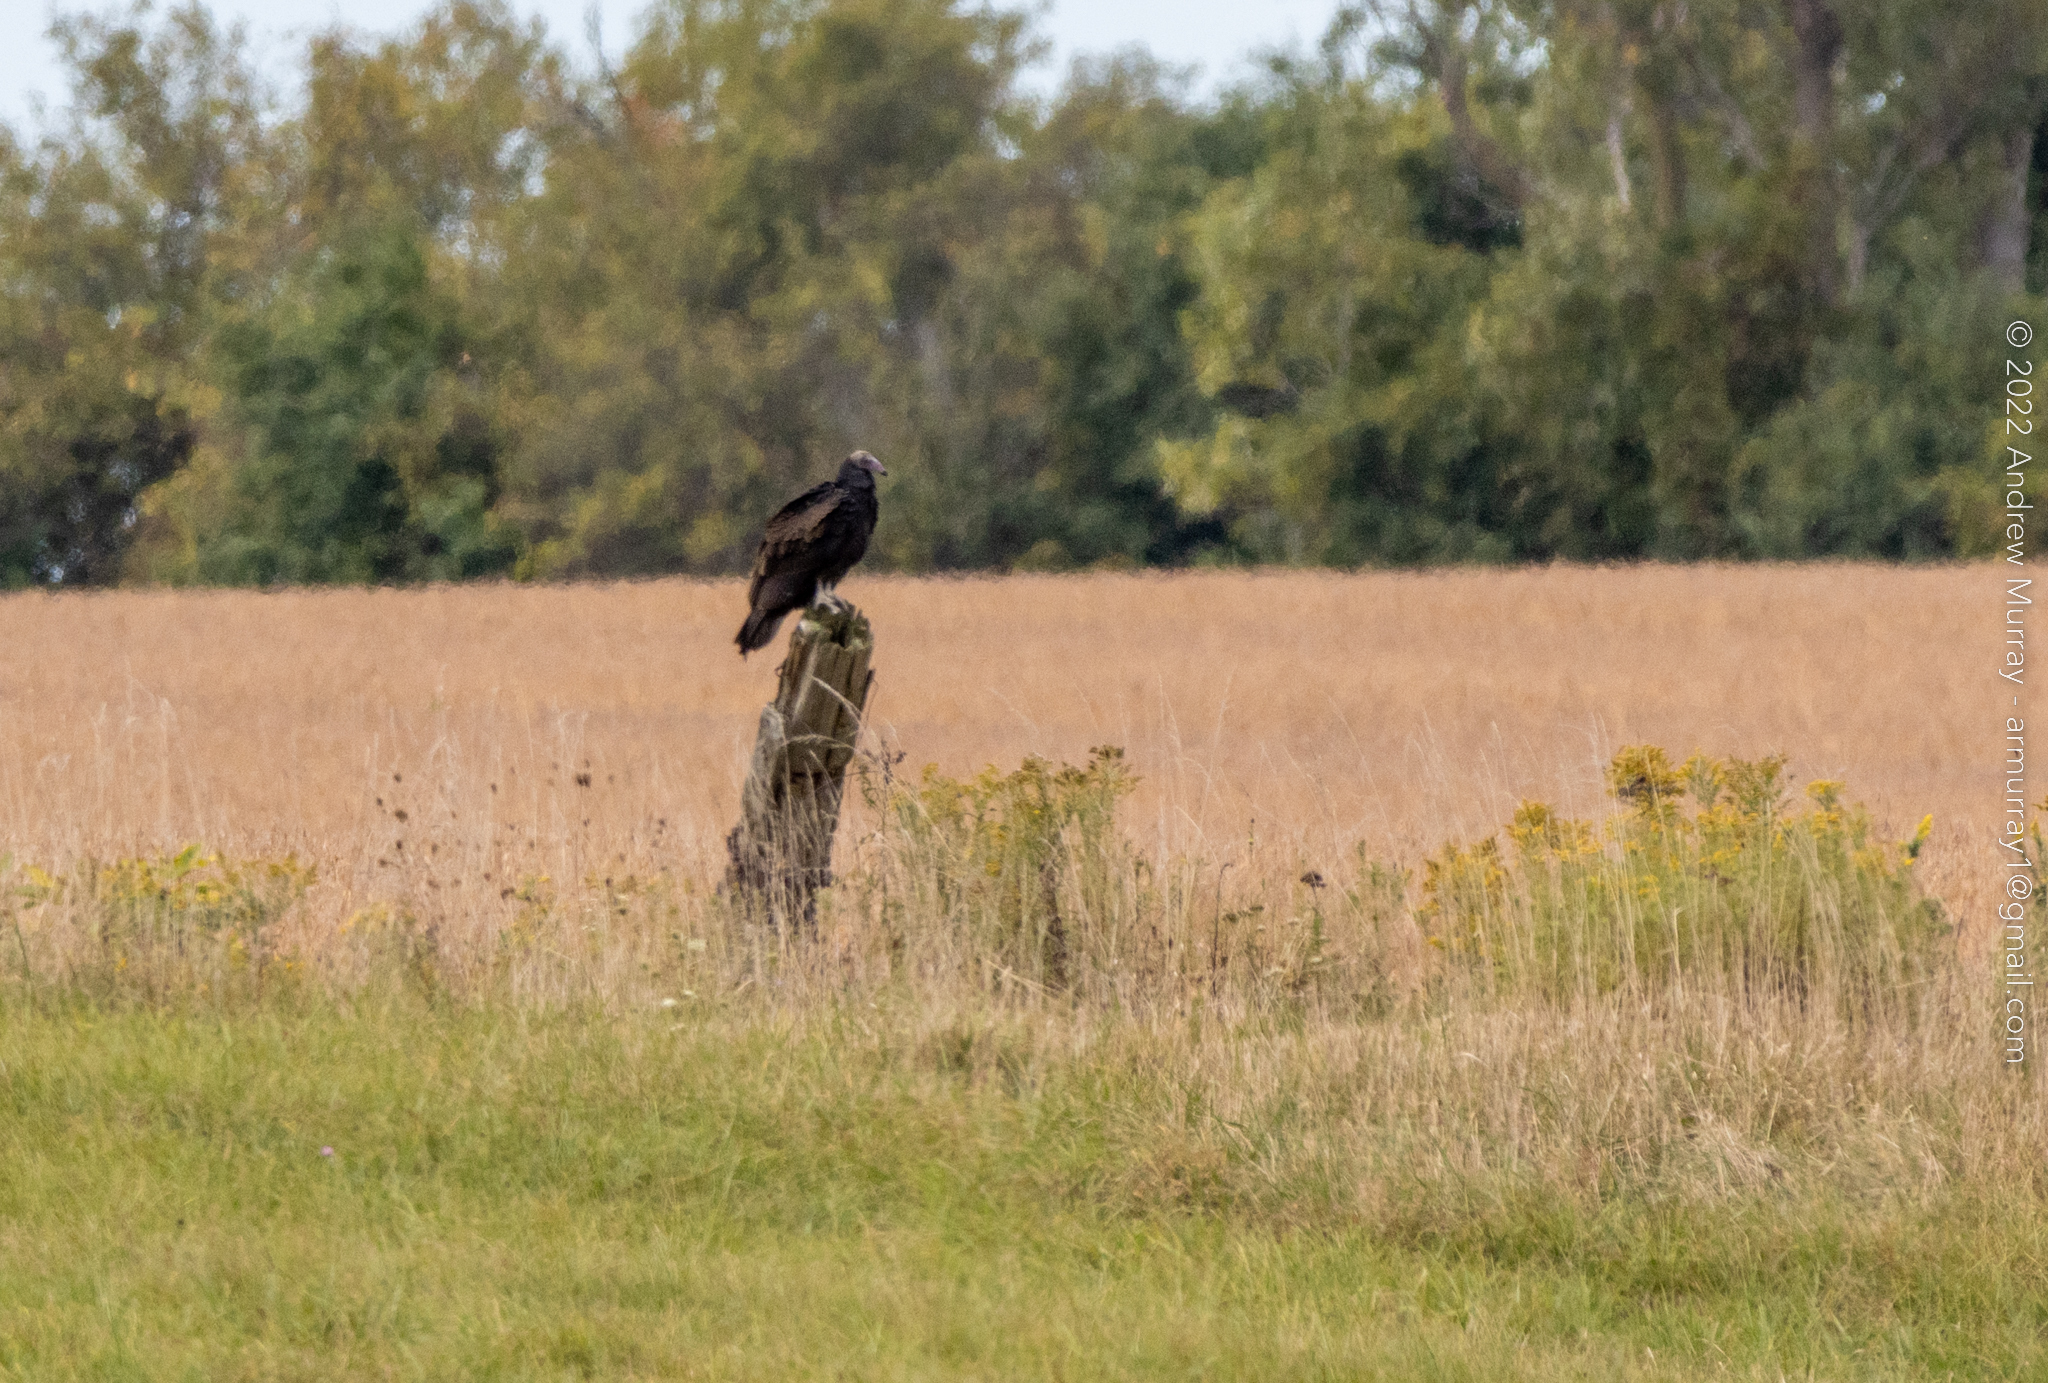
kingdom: Animalia
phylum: Chordata
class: Aves
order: Accipitriformes
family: Cathartidae
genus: Cathartes
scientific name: Cathartes aura
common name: Turkey vulture
